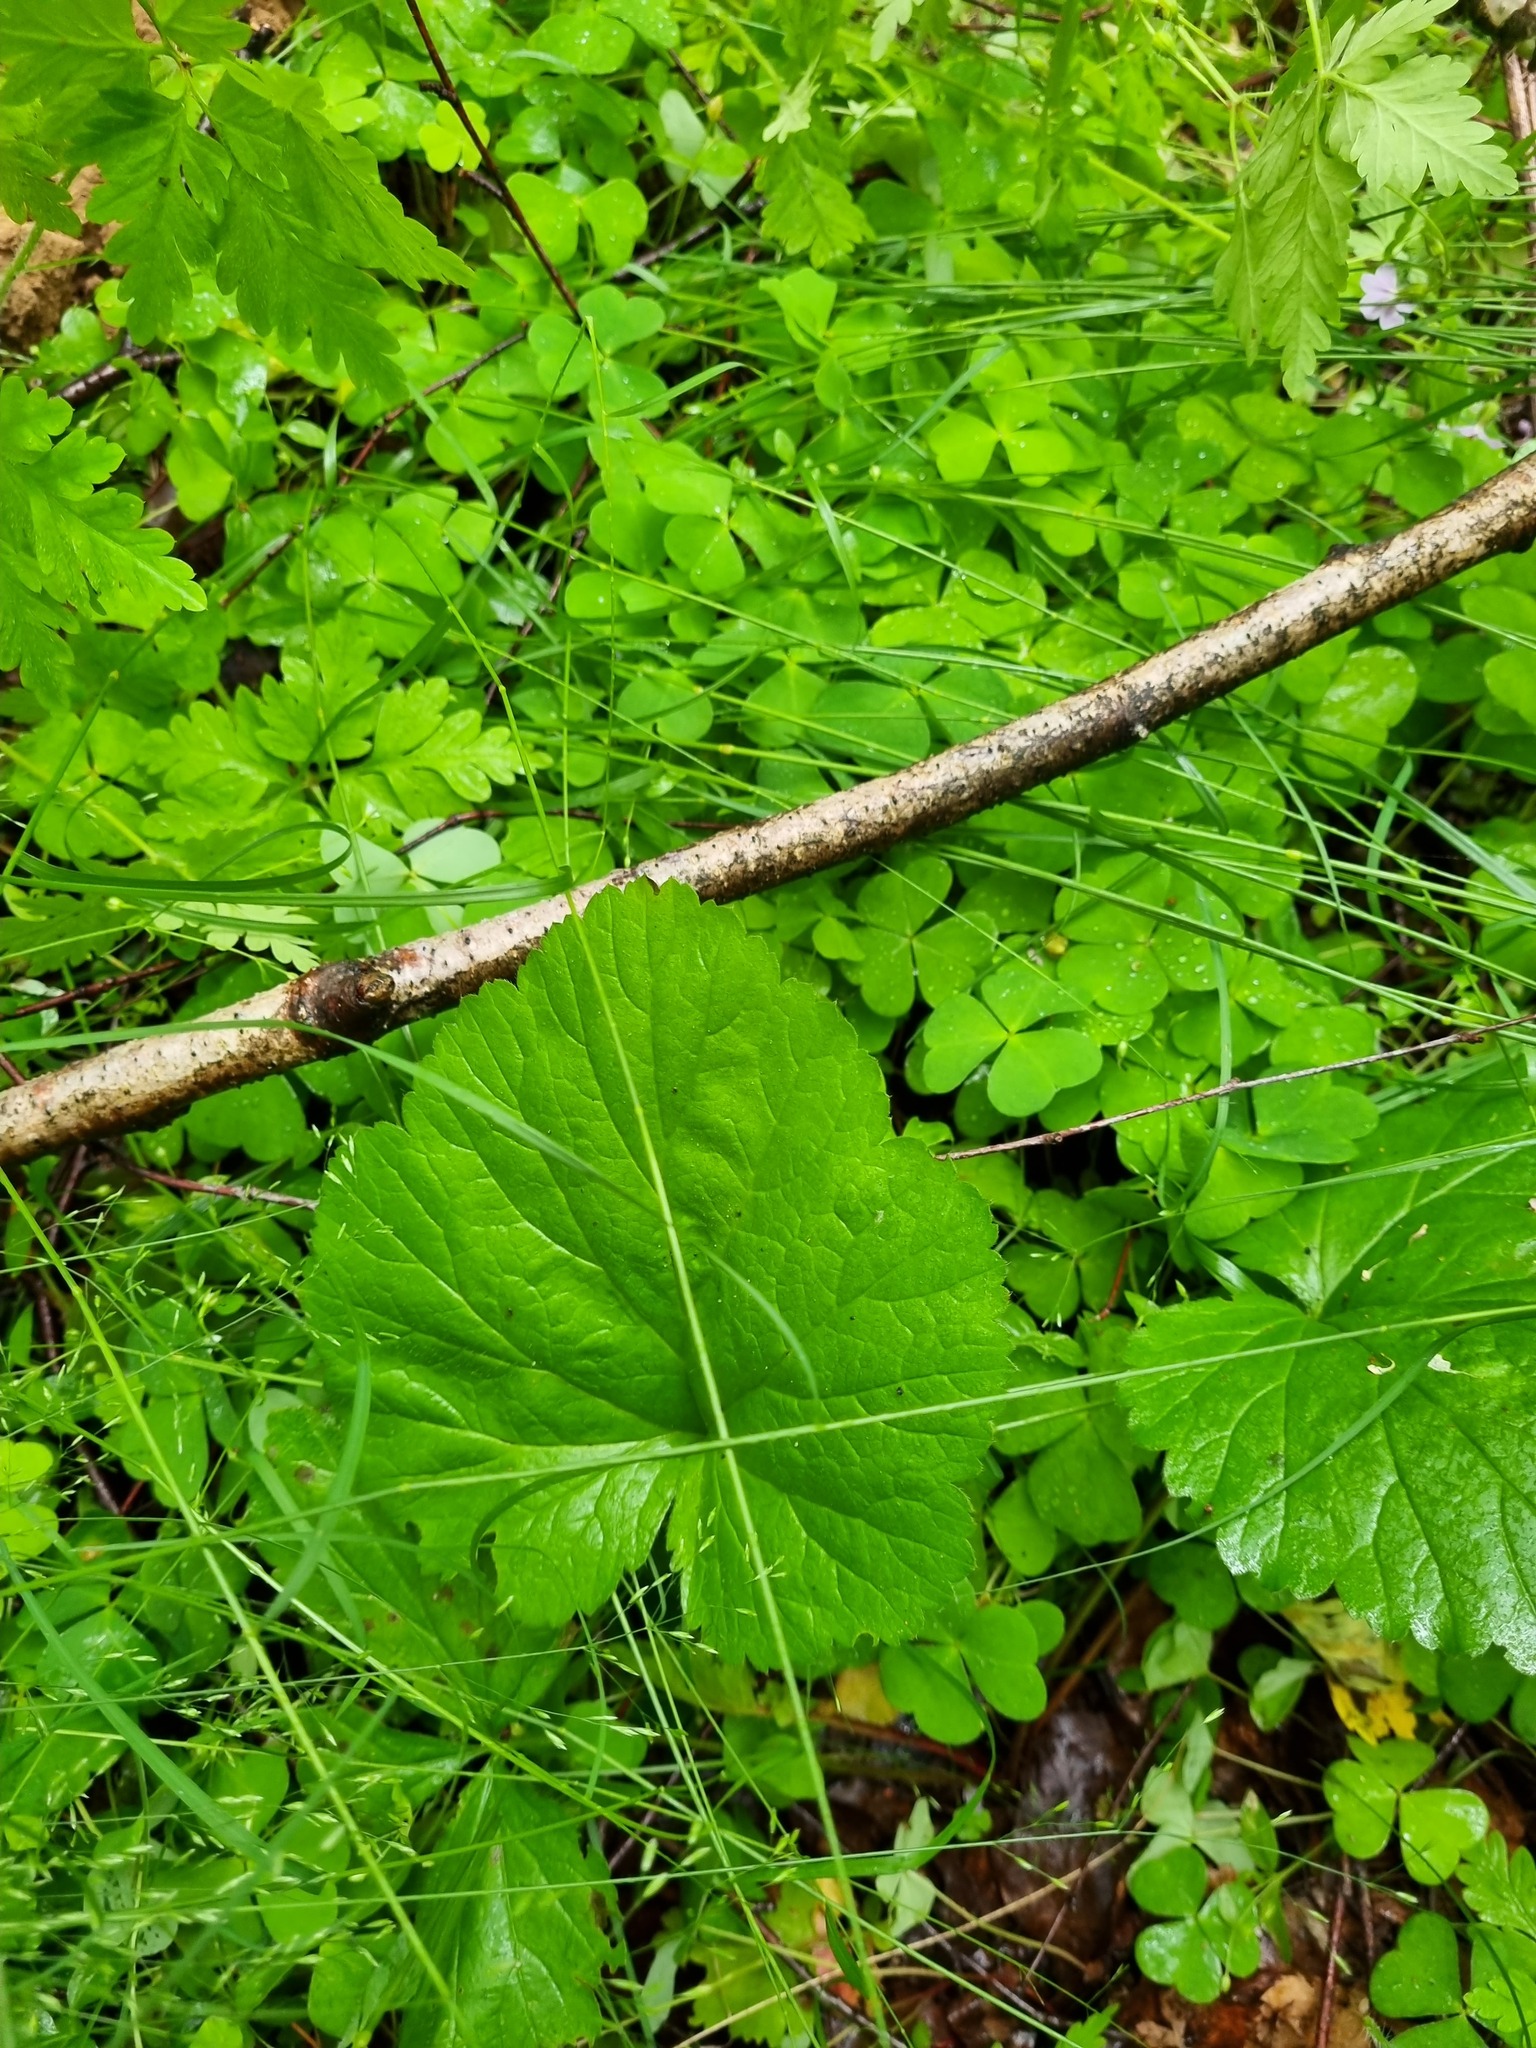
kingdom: Plantae
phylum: Tracheophyta
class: Magnoliopsida
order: Rosales
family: Rosaceae
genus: Geum
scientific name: Geum
